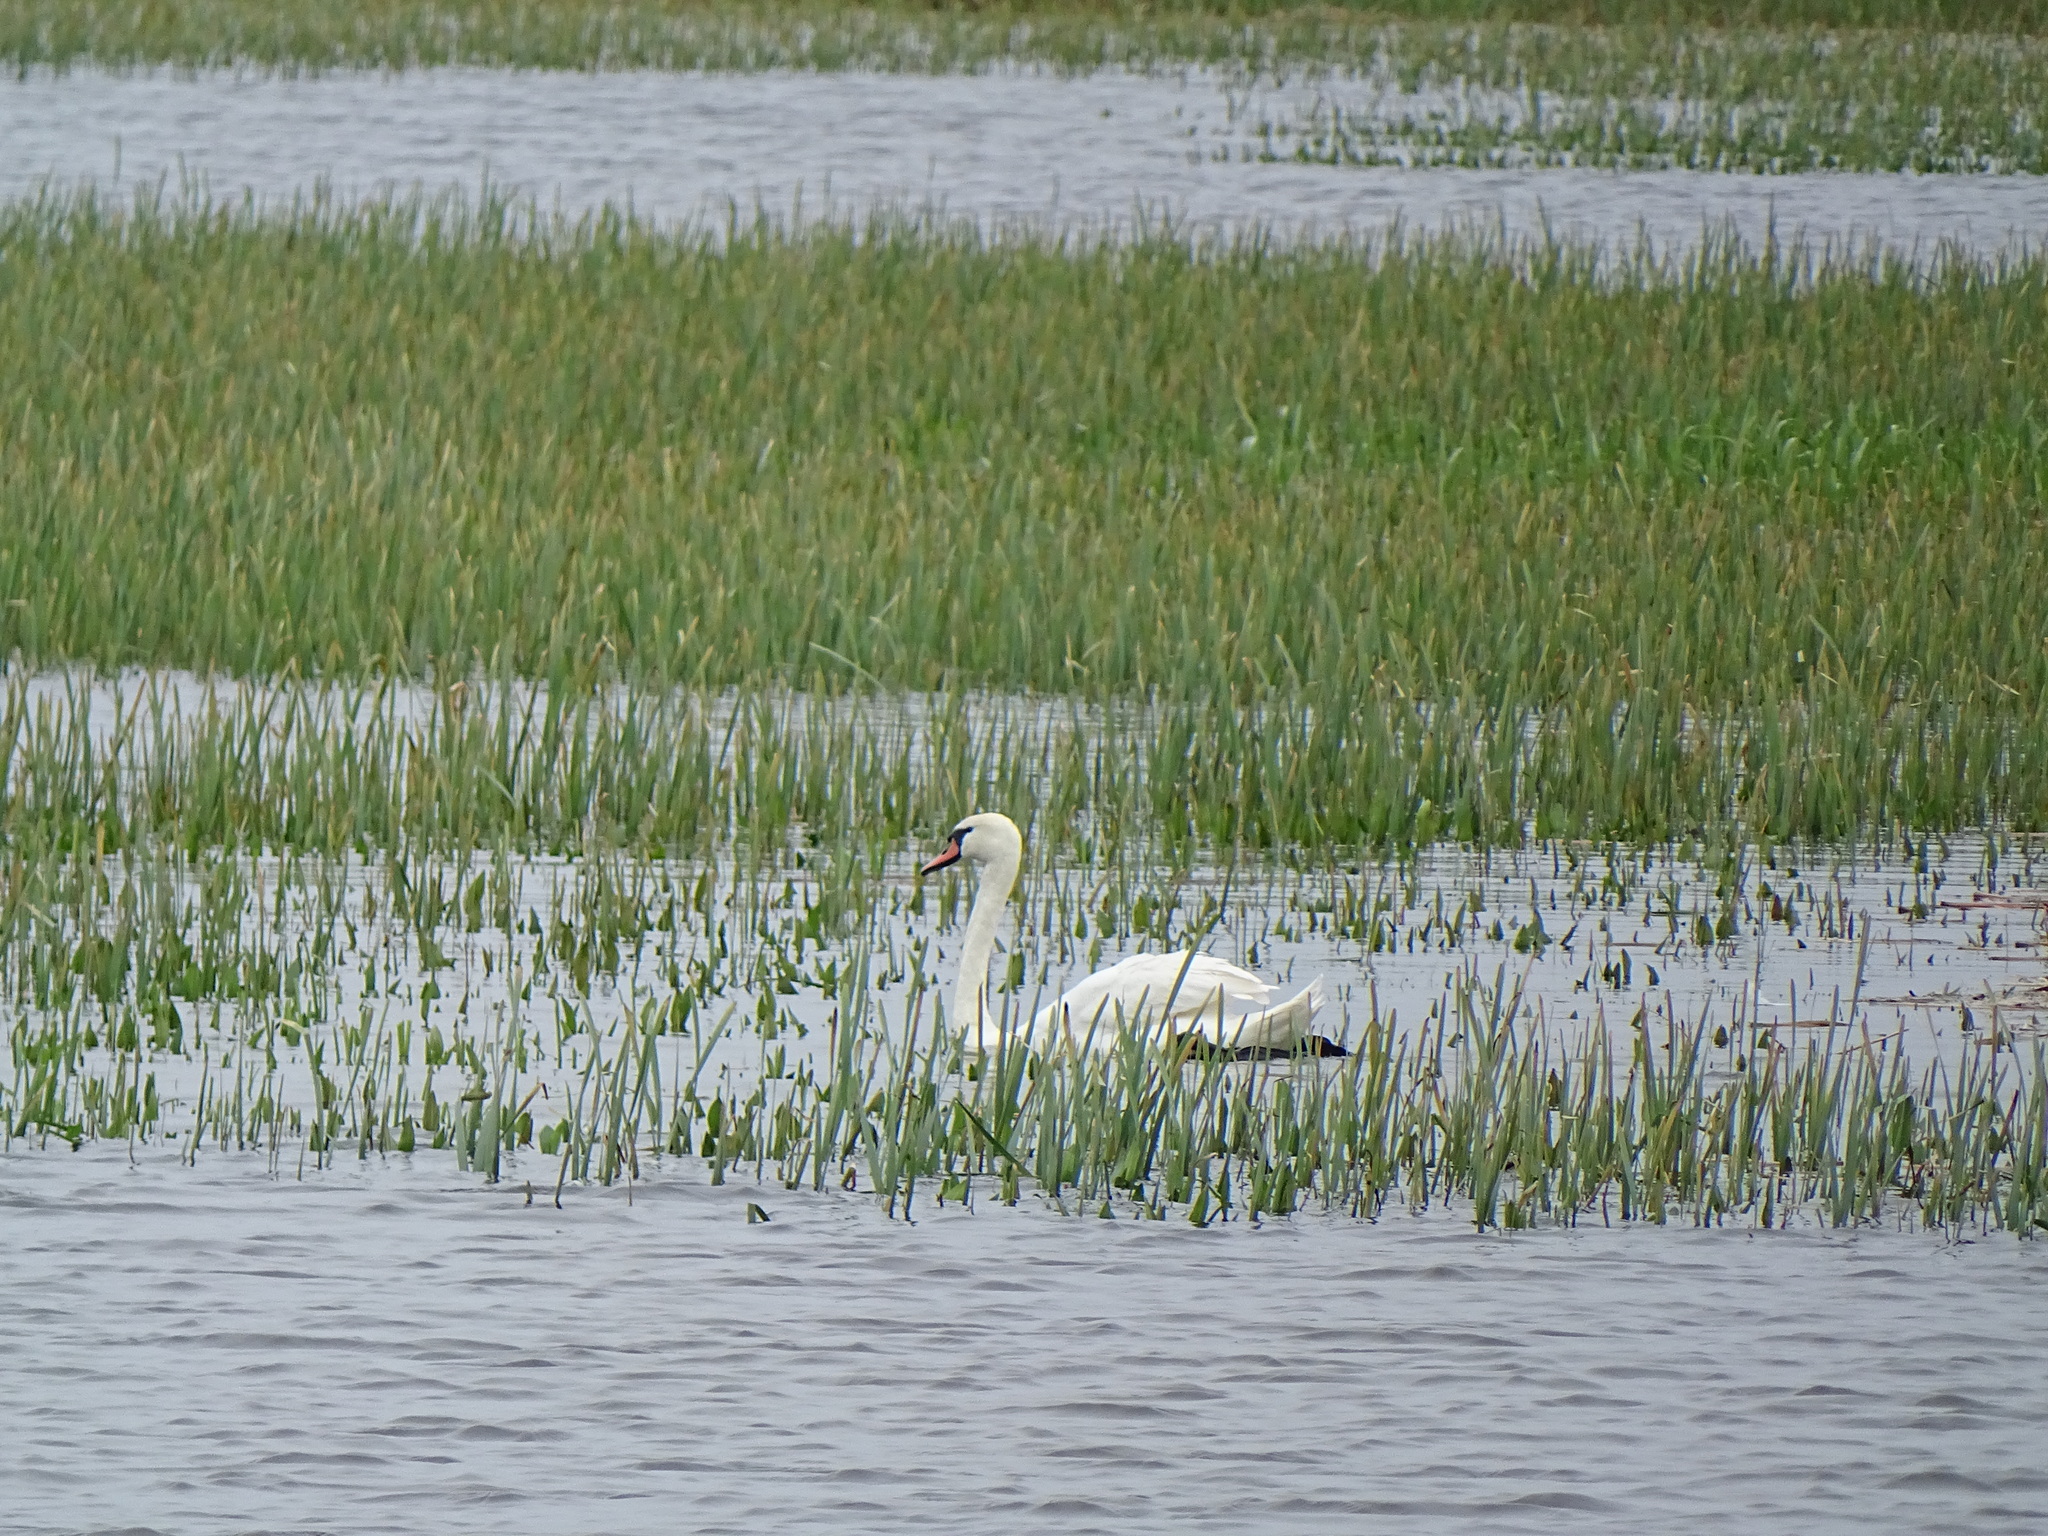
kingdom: Animalia
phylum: Chordata
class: Aves
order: Anseriformes
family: Anatidae
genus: Cygnus
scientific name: Cygnus olor
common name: Mute swan
